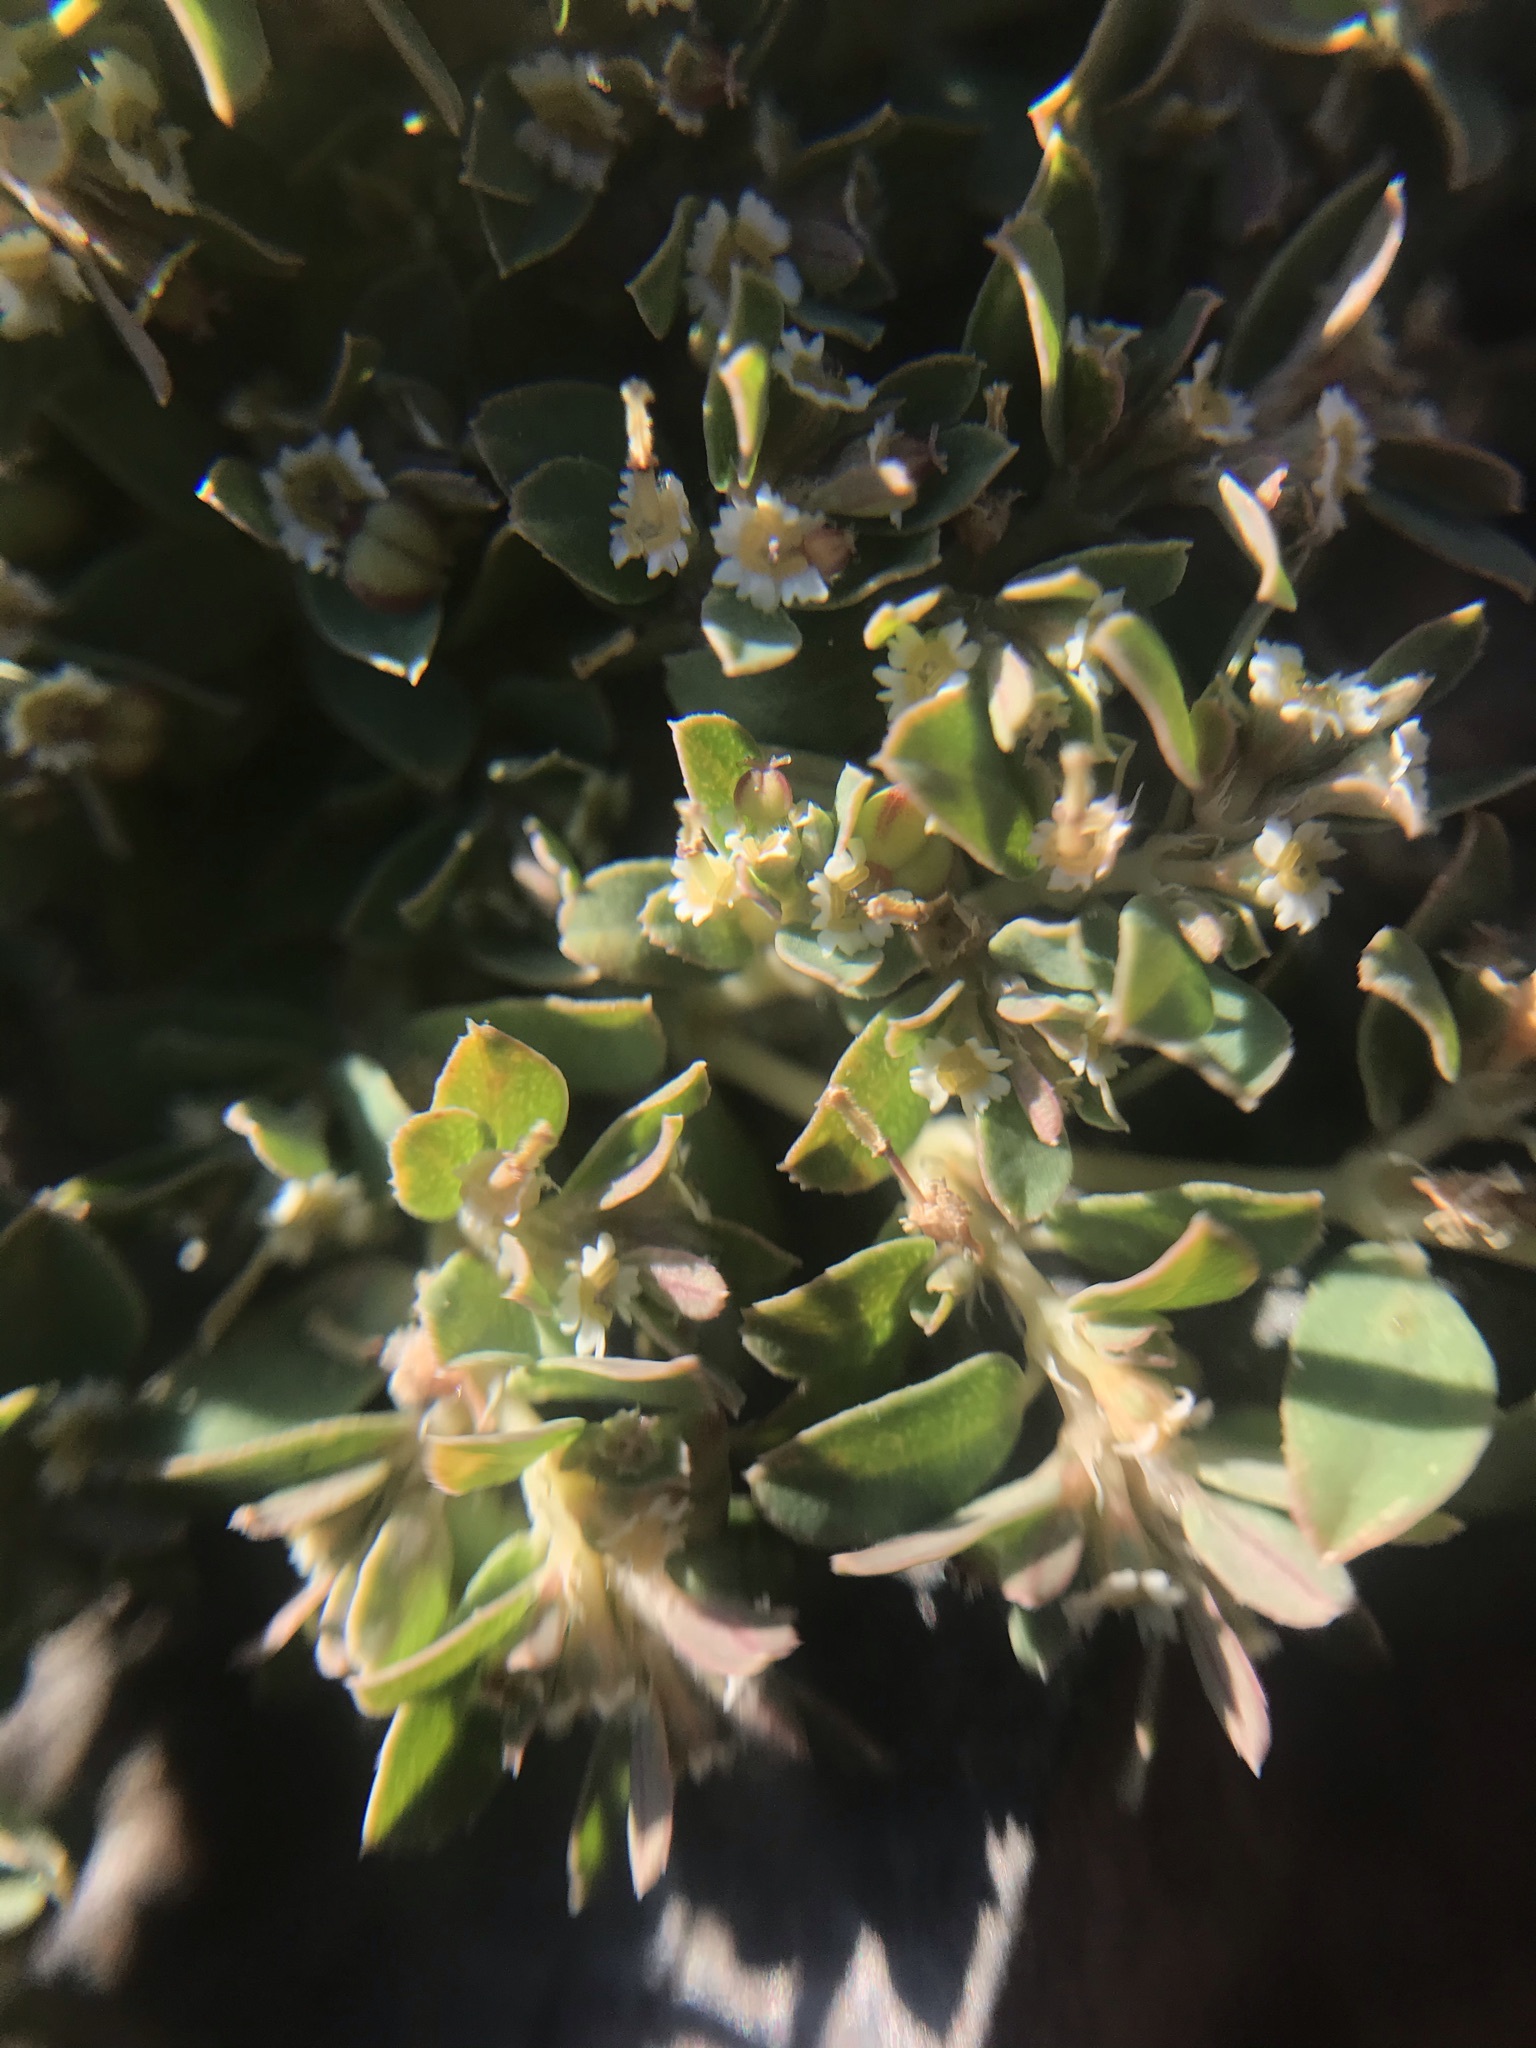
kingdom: Plantae
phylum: Tracheophyta
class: Magnoliopsida
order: Malpighiales
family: Euphorbiaceae
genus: Euphorbia
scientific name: Euphorbia serpillifolia
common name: Thyme-leaf spurge
